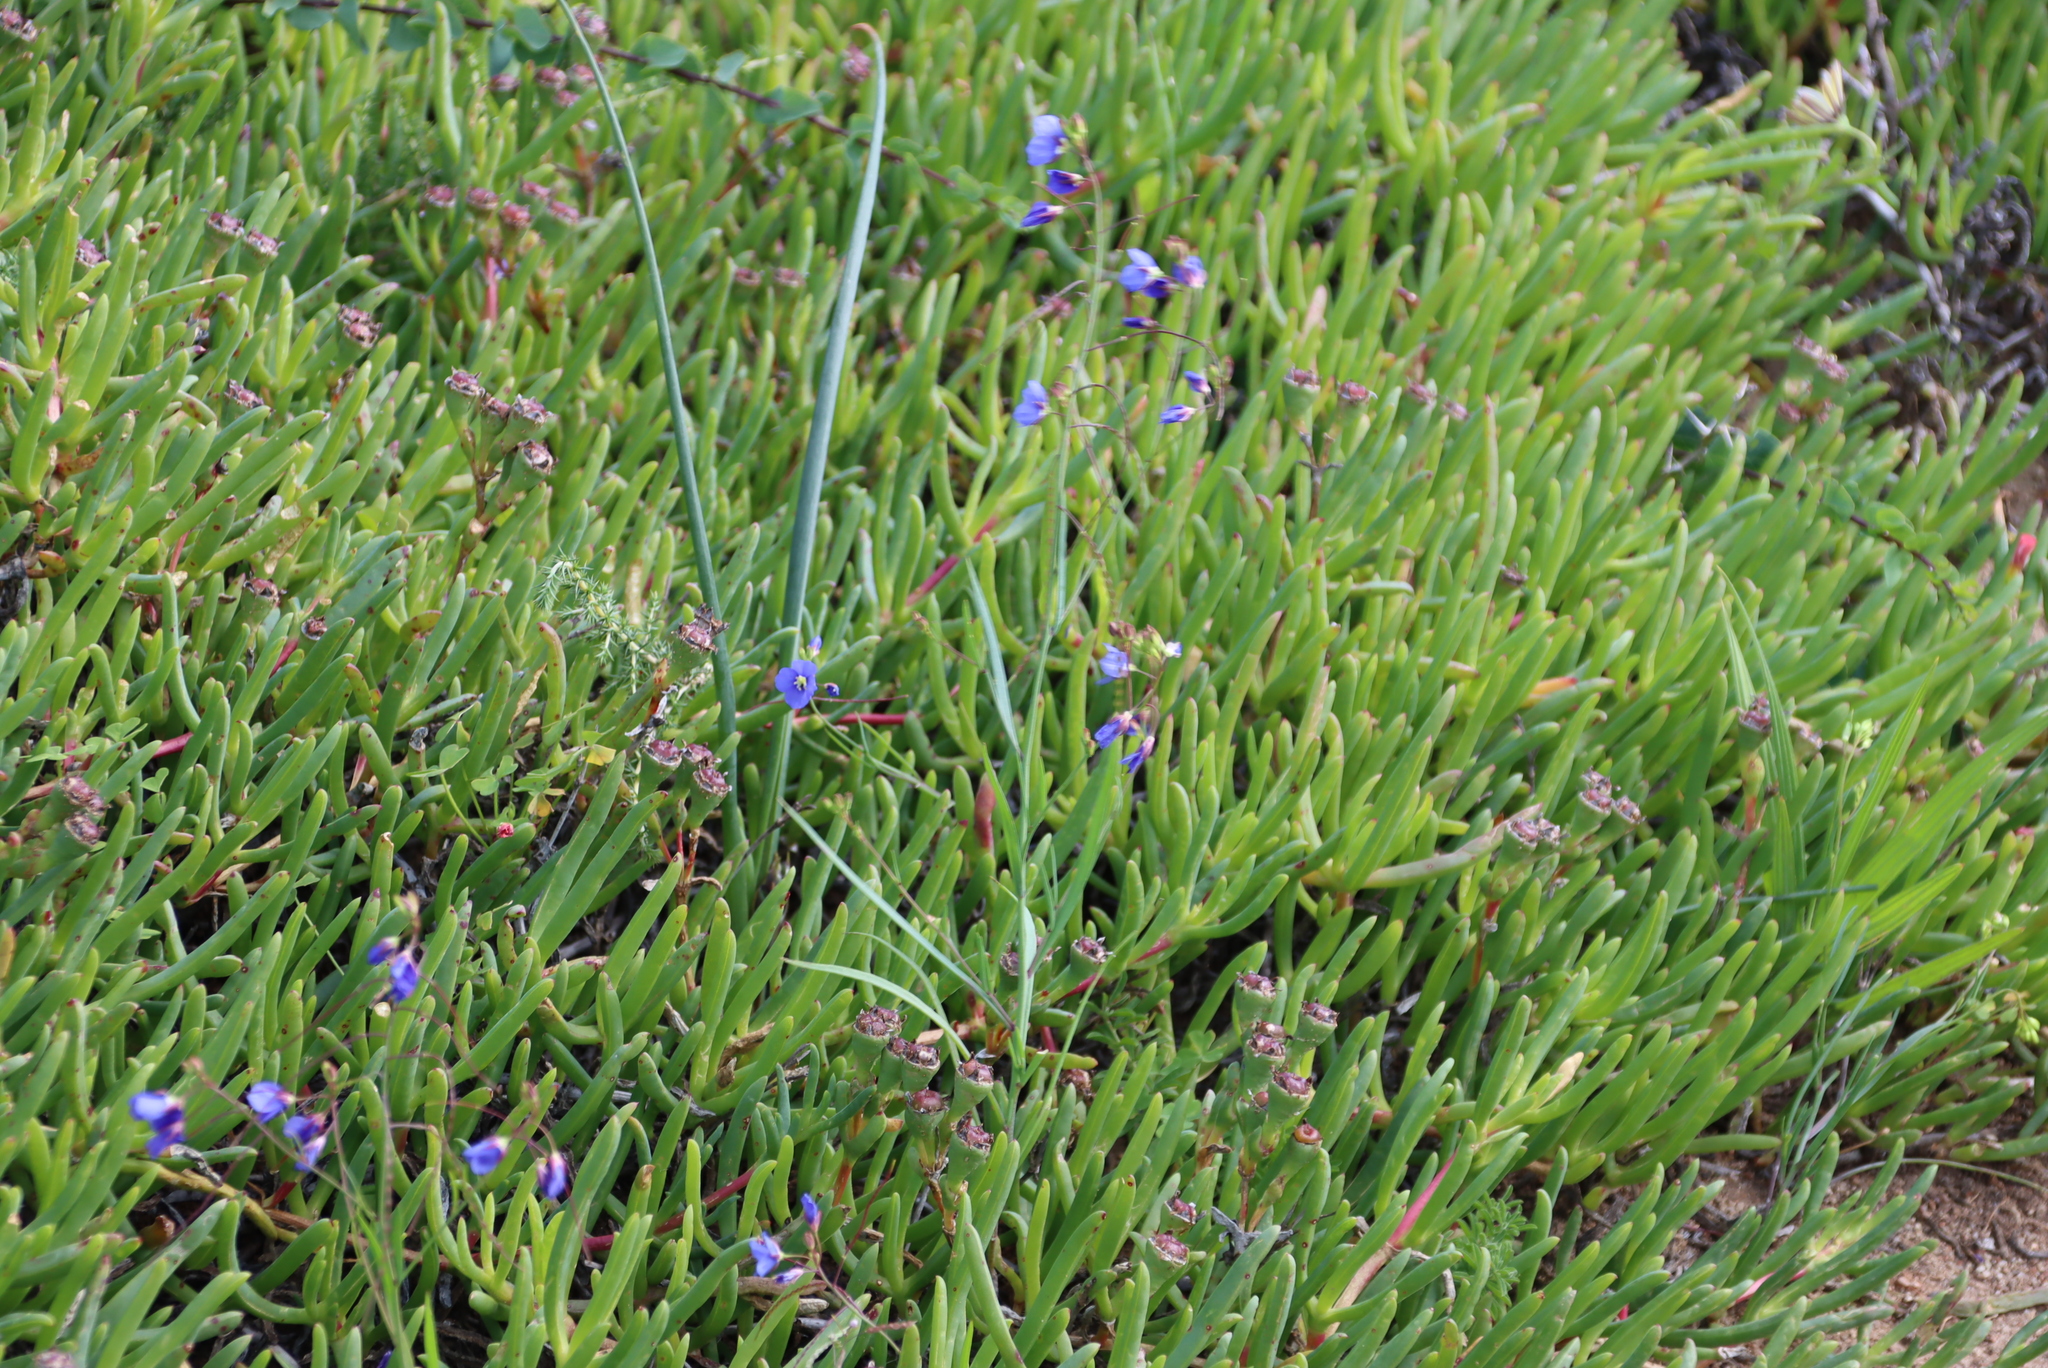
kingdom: Plantae
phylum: Tracheophyta
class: Magnoliopsida
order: Brassicales
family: Brassicaceae
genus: Heliophila
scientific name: Heliophila coronopifolia
